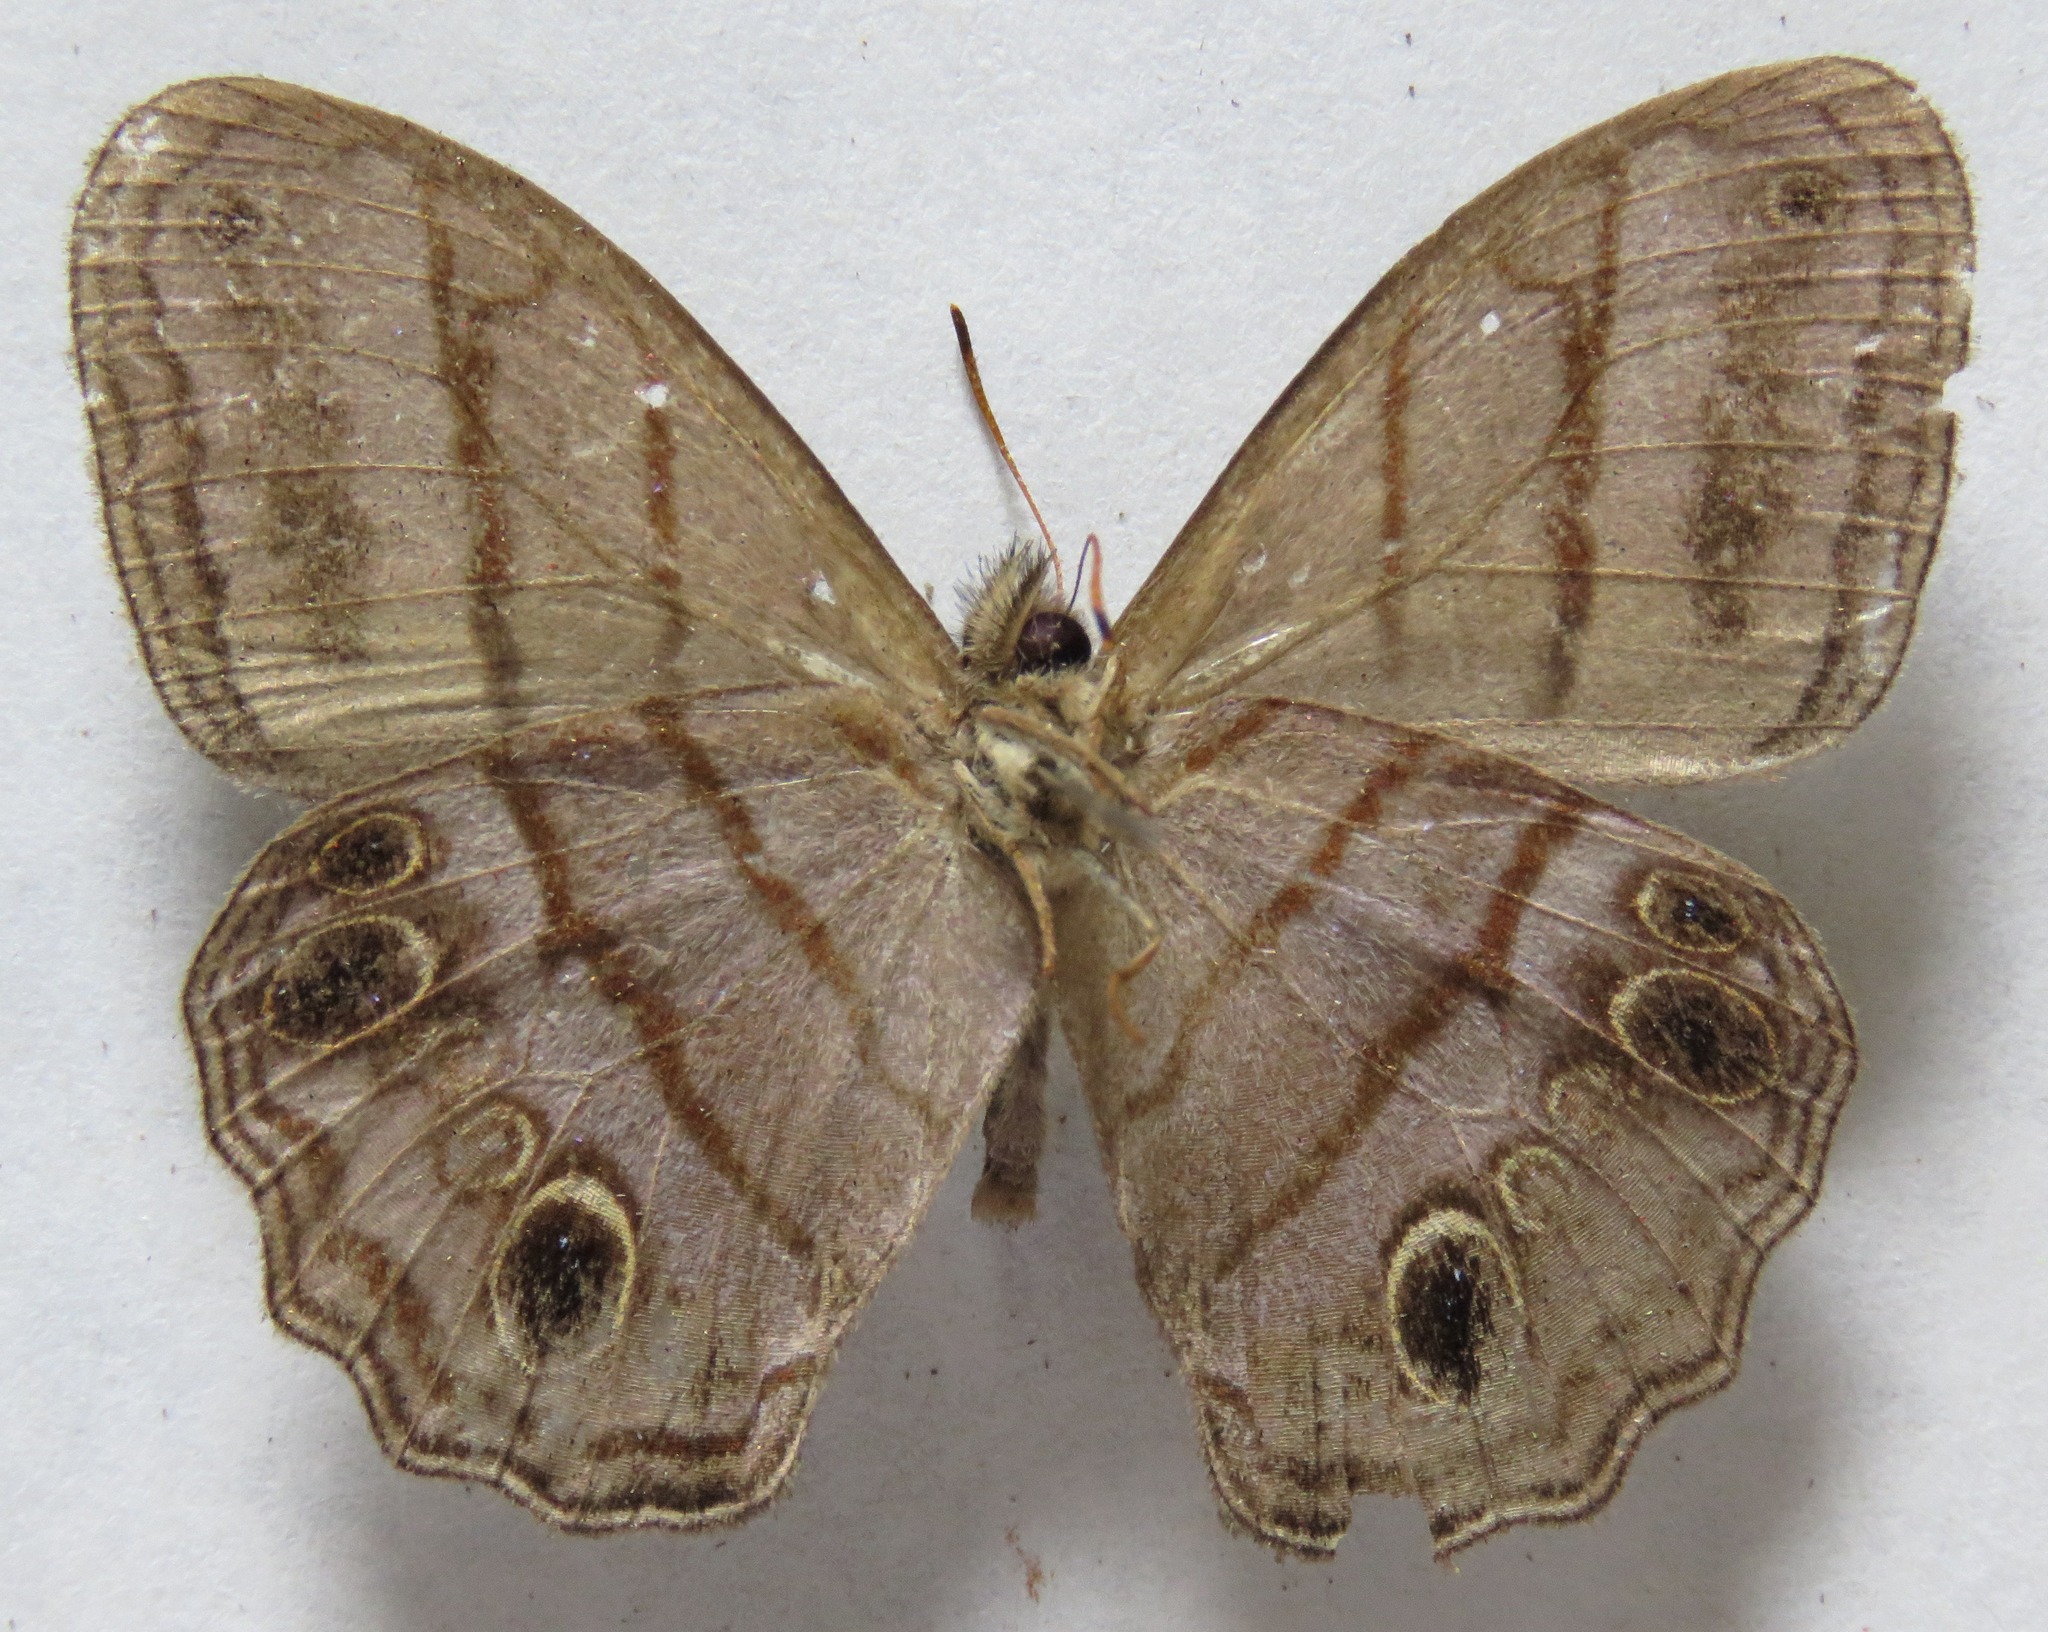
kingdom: Animalia
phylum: Arthropoda
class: Insecta
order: Lepidoptera
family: Nymphalidae
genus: Magneuptychia
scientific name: Magneuptychia libye
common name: Blue-gray satyr
